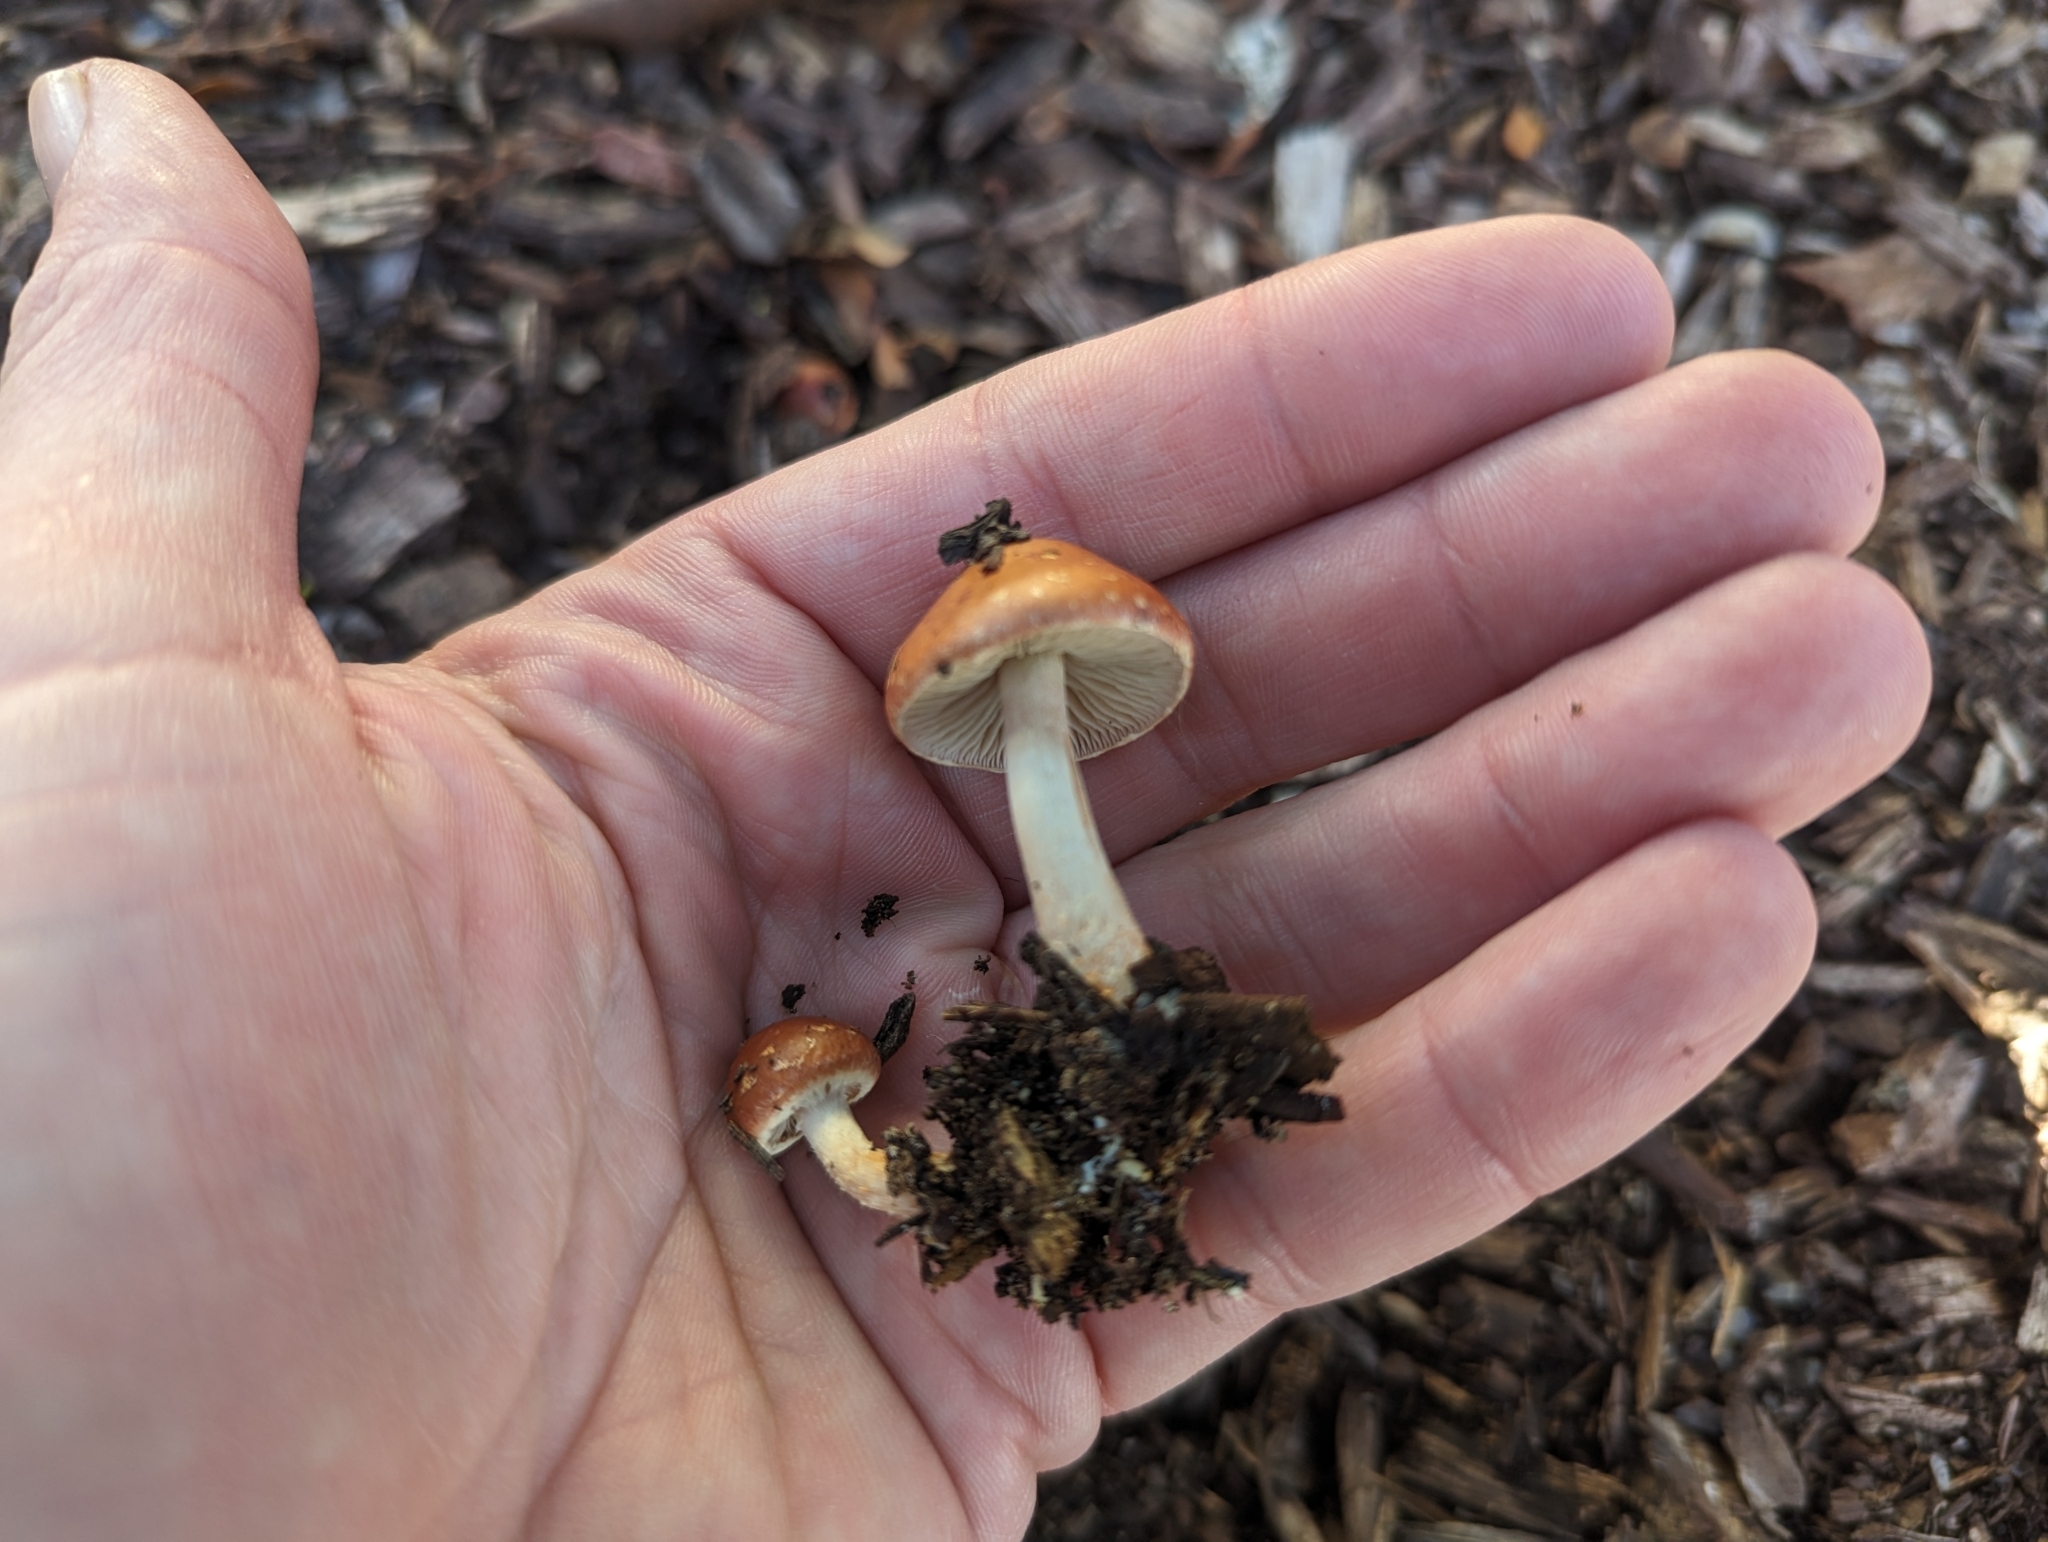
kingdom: Fungi
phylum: Basidiomycota
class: Agaricomycetes
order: Agaricales
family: Strophariaceae
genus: Leratiomyces
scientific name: Leratiomyces ceres
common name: Redlead roundhead
